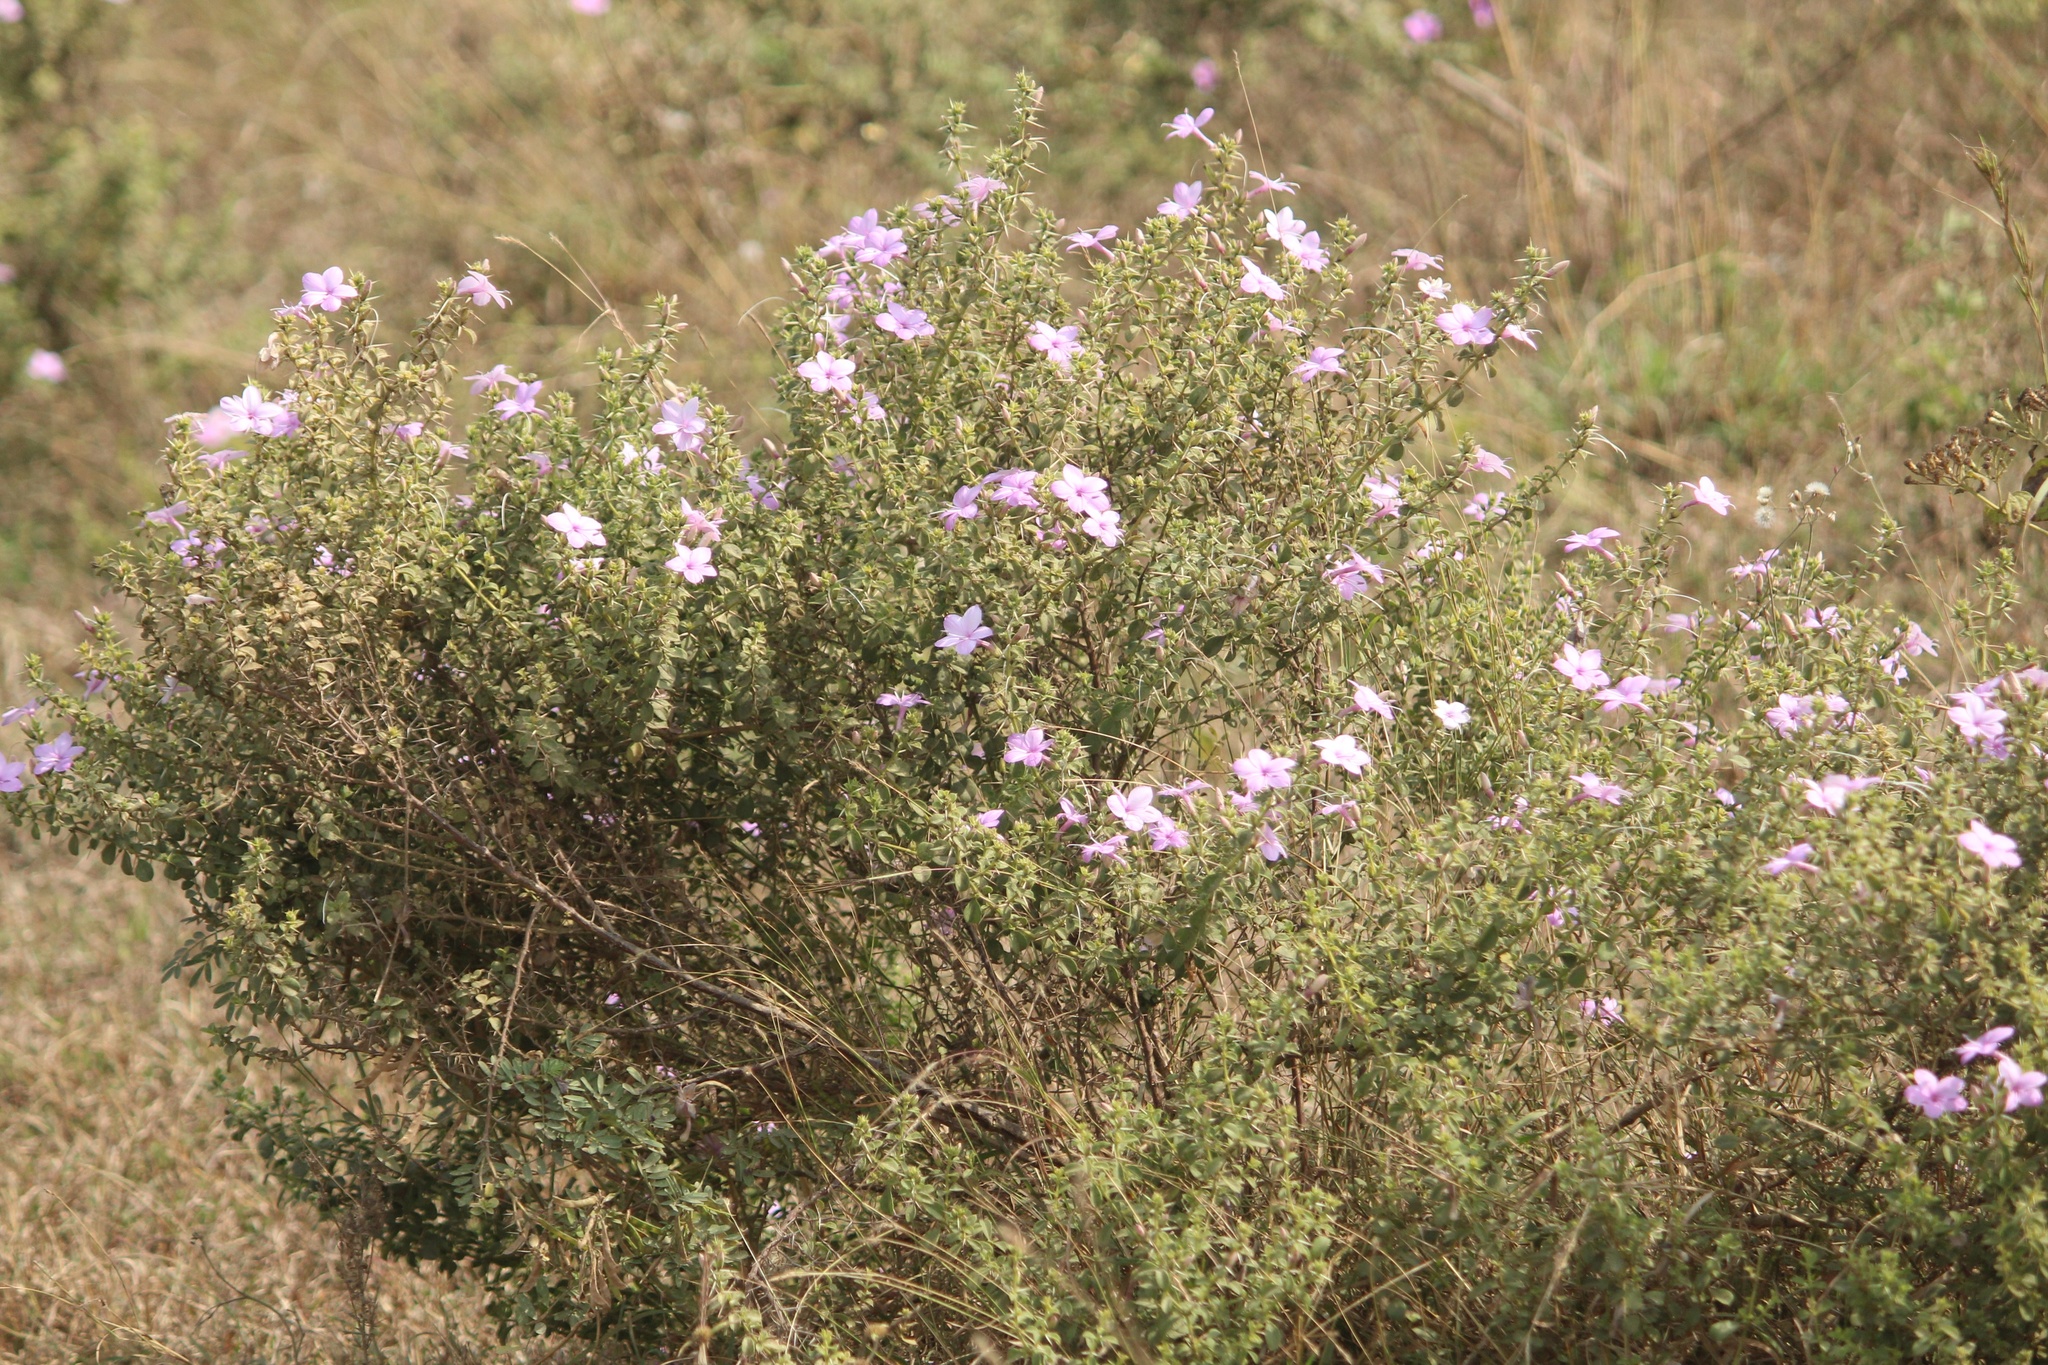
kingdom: Plantae
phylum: Tracheophyta
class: Magnoliopsida
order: Lamiales
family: Acanthaceae
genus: Barleria
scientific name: Barleria mysorensis
